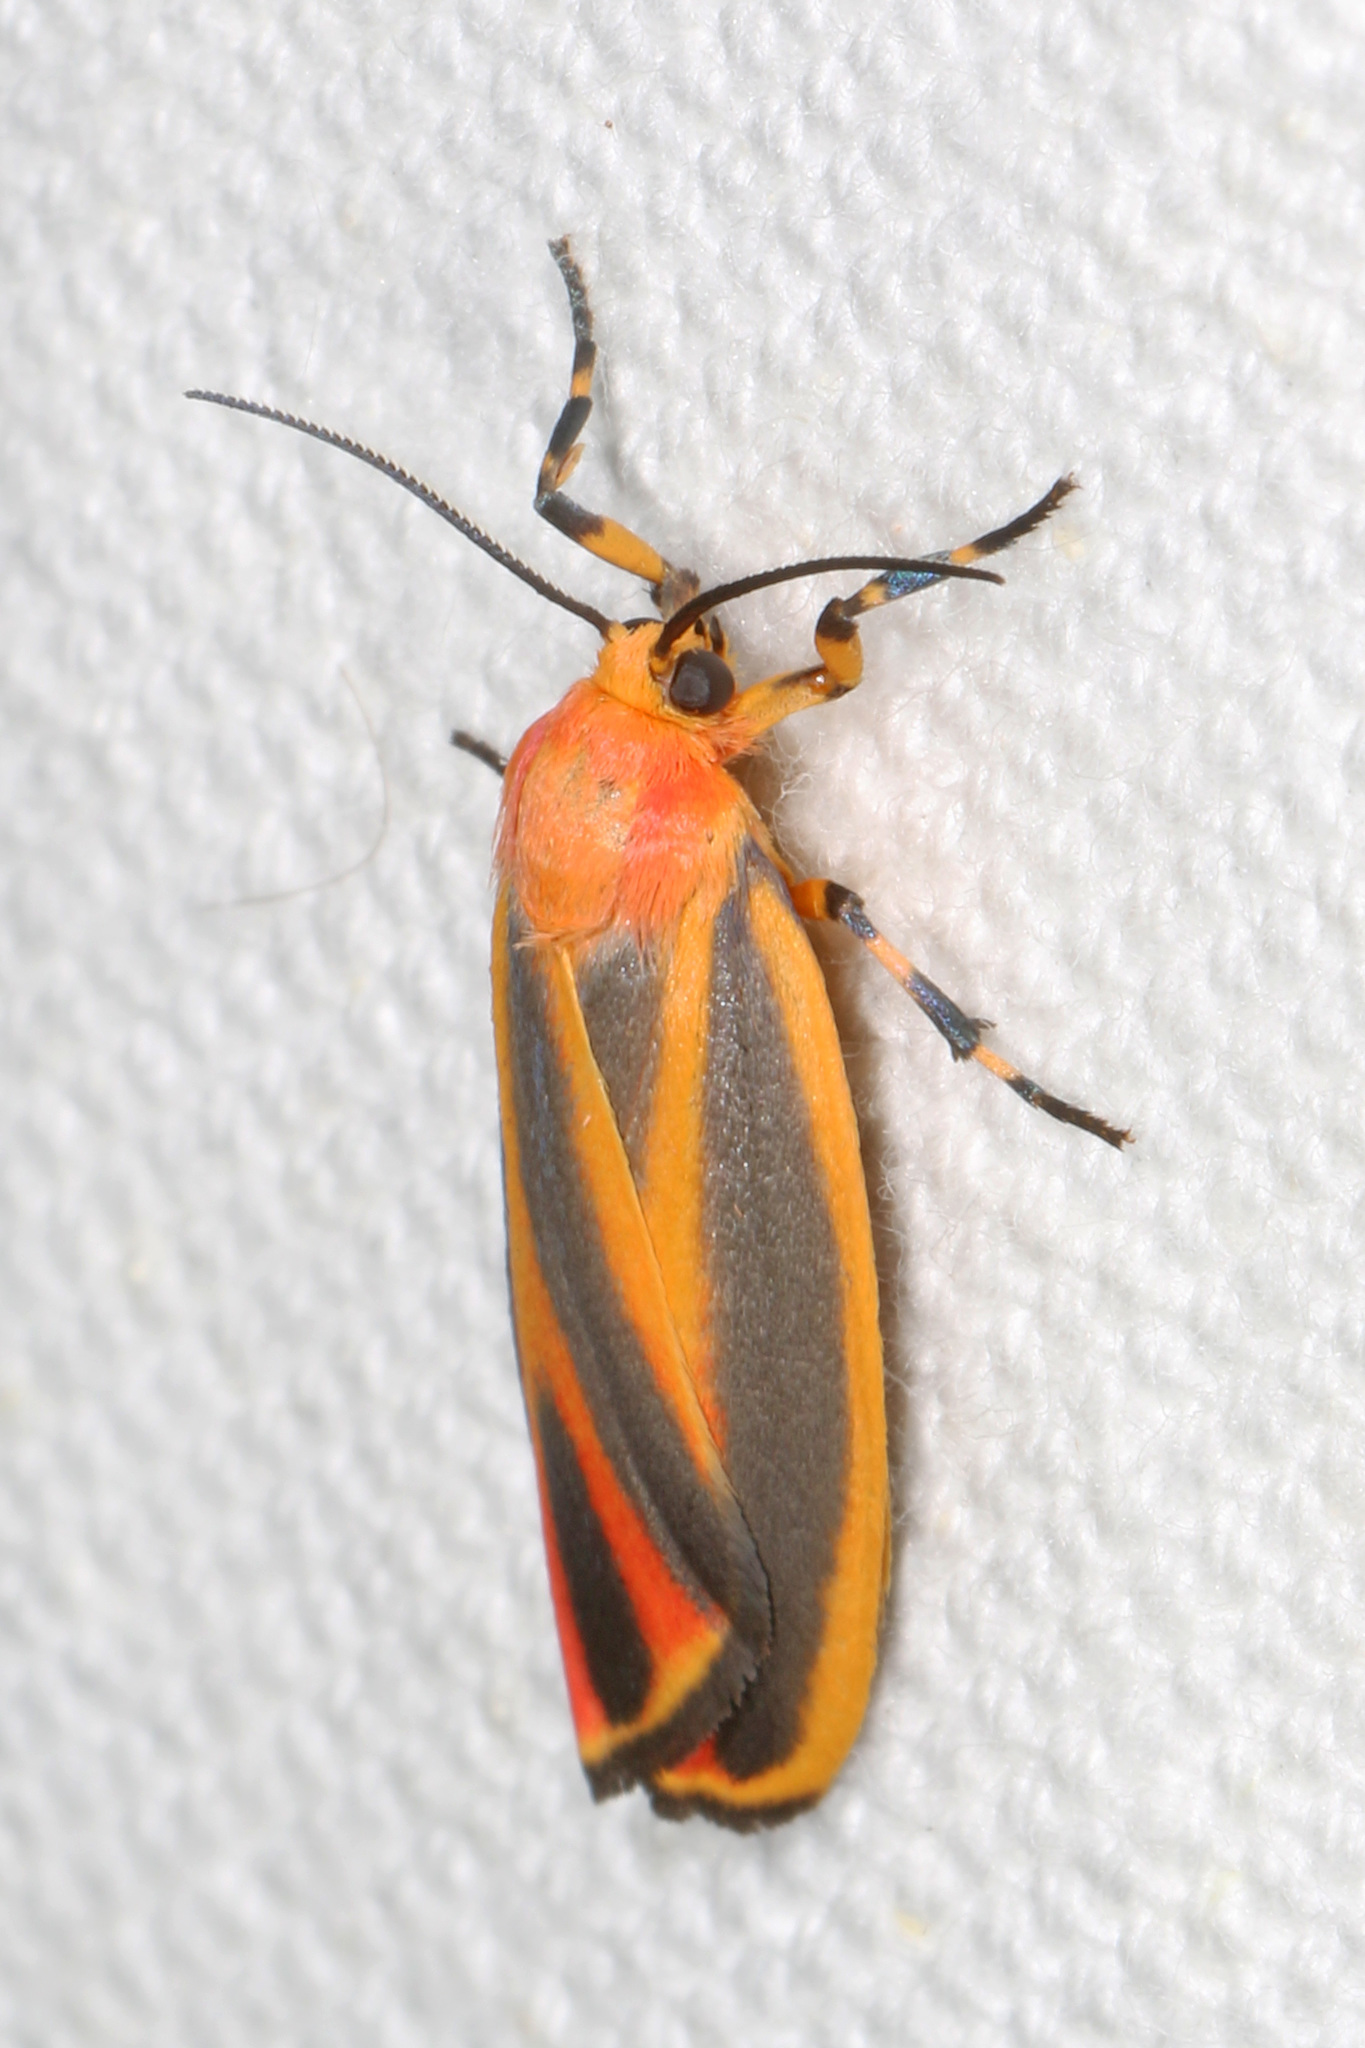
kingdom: Animalia
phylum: Arthropoda
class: Insecta
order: Lepidoptera
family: Erebidae
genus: Hypoprepia
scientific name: Hypoprepia fucosa
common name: Painted lichen moth
